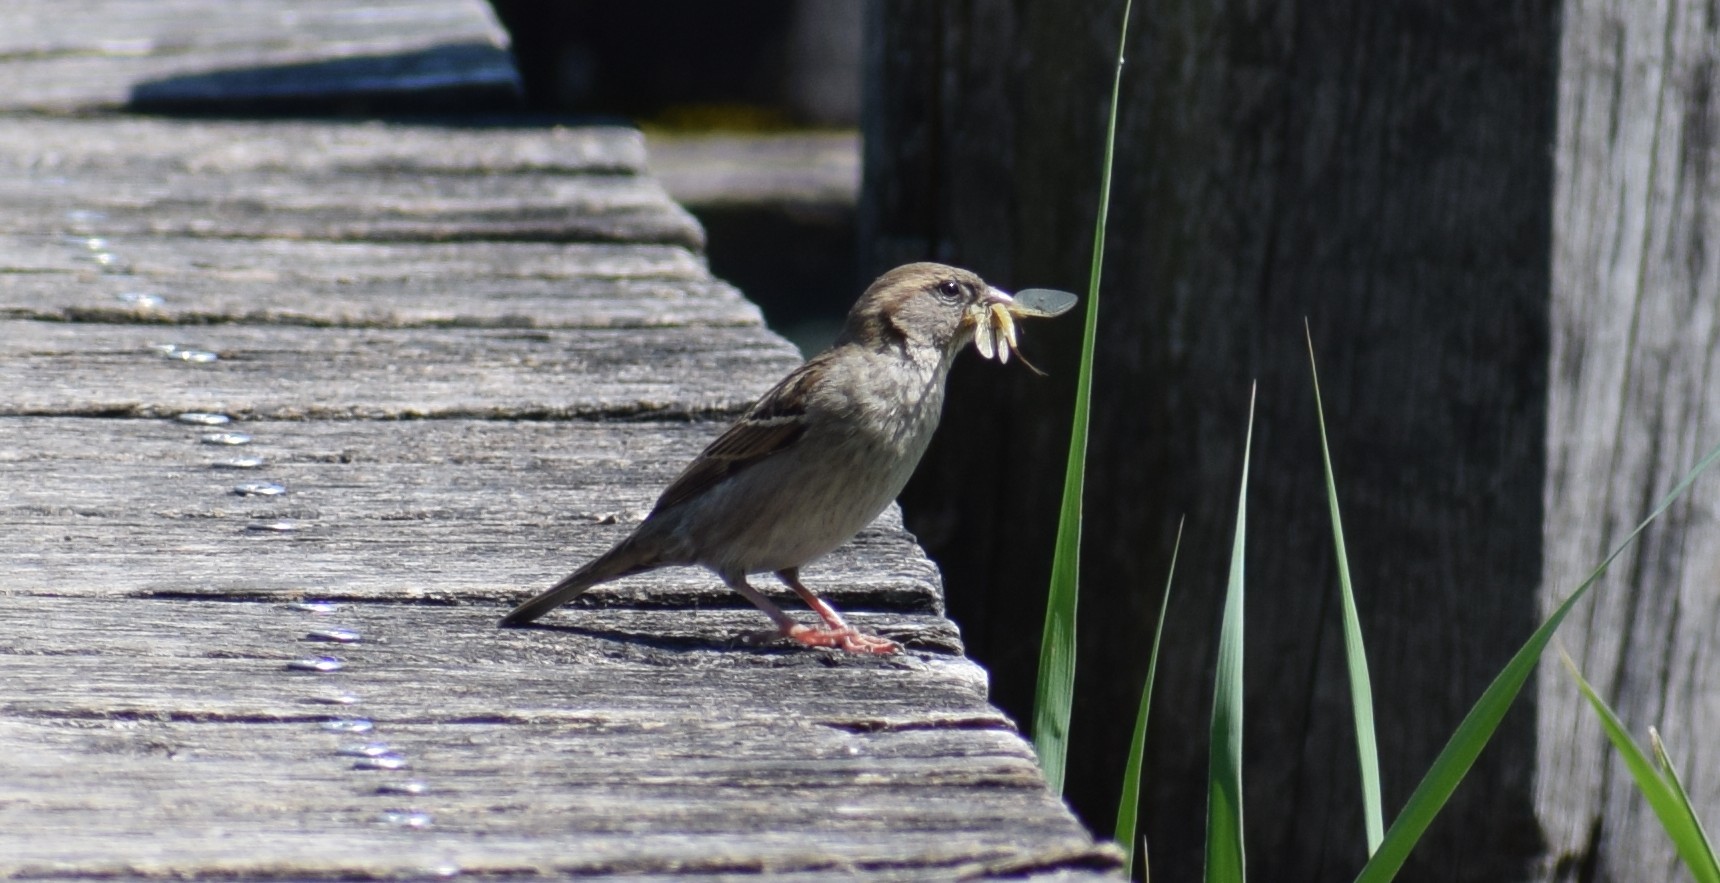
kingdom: Animalia
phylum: Chordata
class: Aves
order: Passeriformes
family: Passeridae
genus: Passer
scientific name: Passer domesticus
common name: House sparrow
